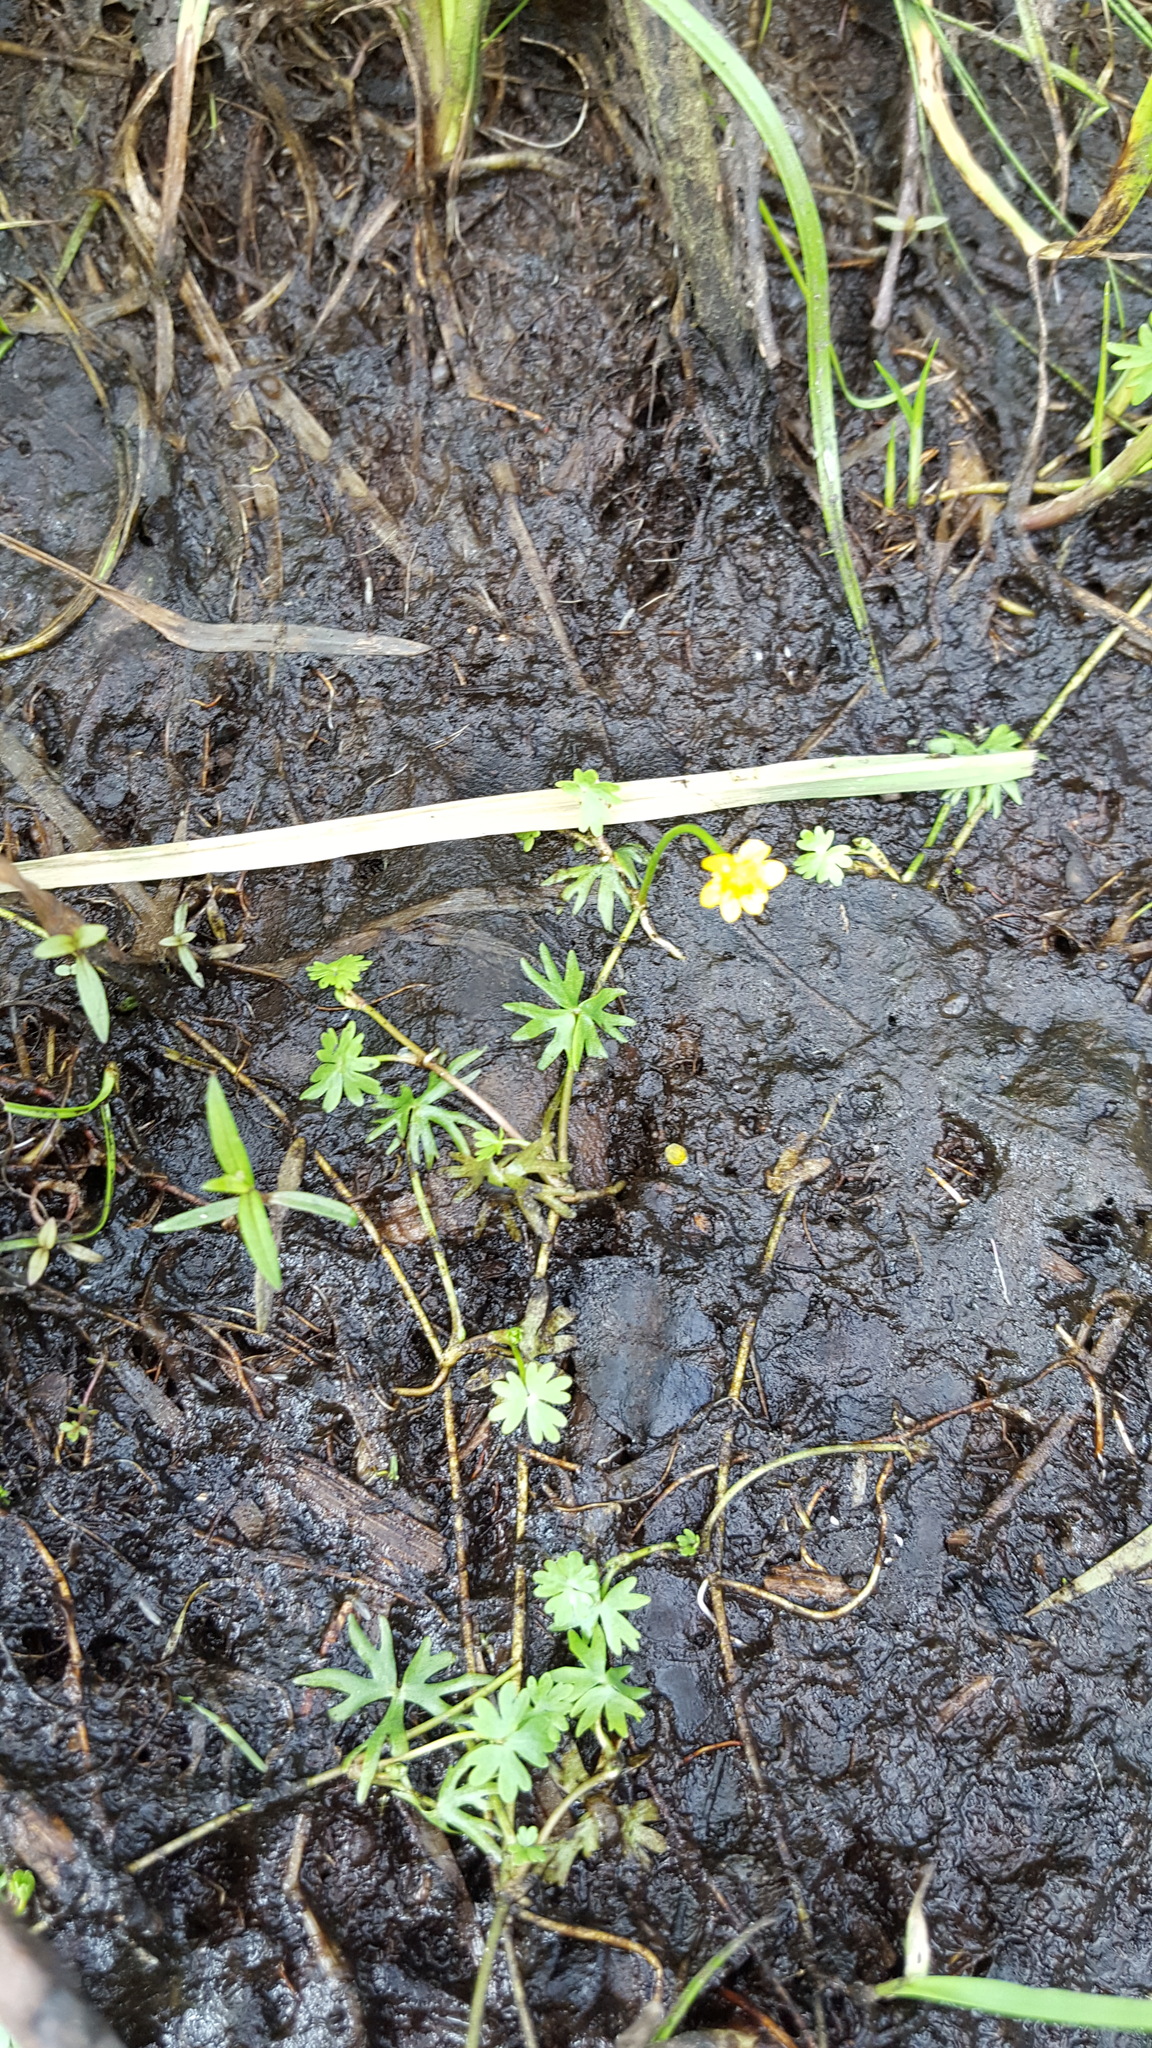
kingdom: Plantae
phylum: Tracheophyta
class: Magnoliopsida
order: Ranunculales
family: Ranunculaceae
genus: Ranunculus
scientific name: Ranunculus gmelinii
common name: Gmelin's buttercup
